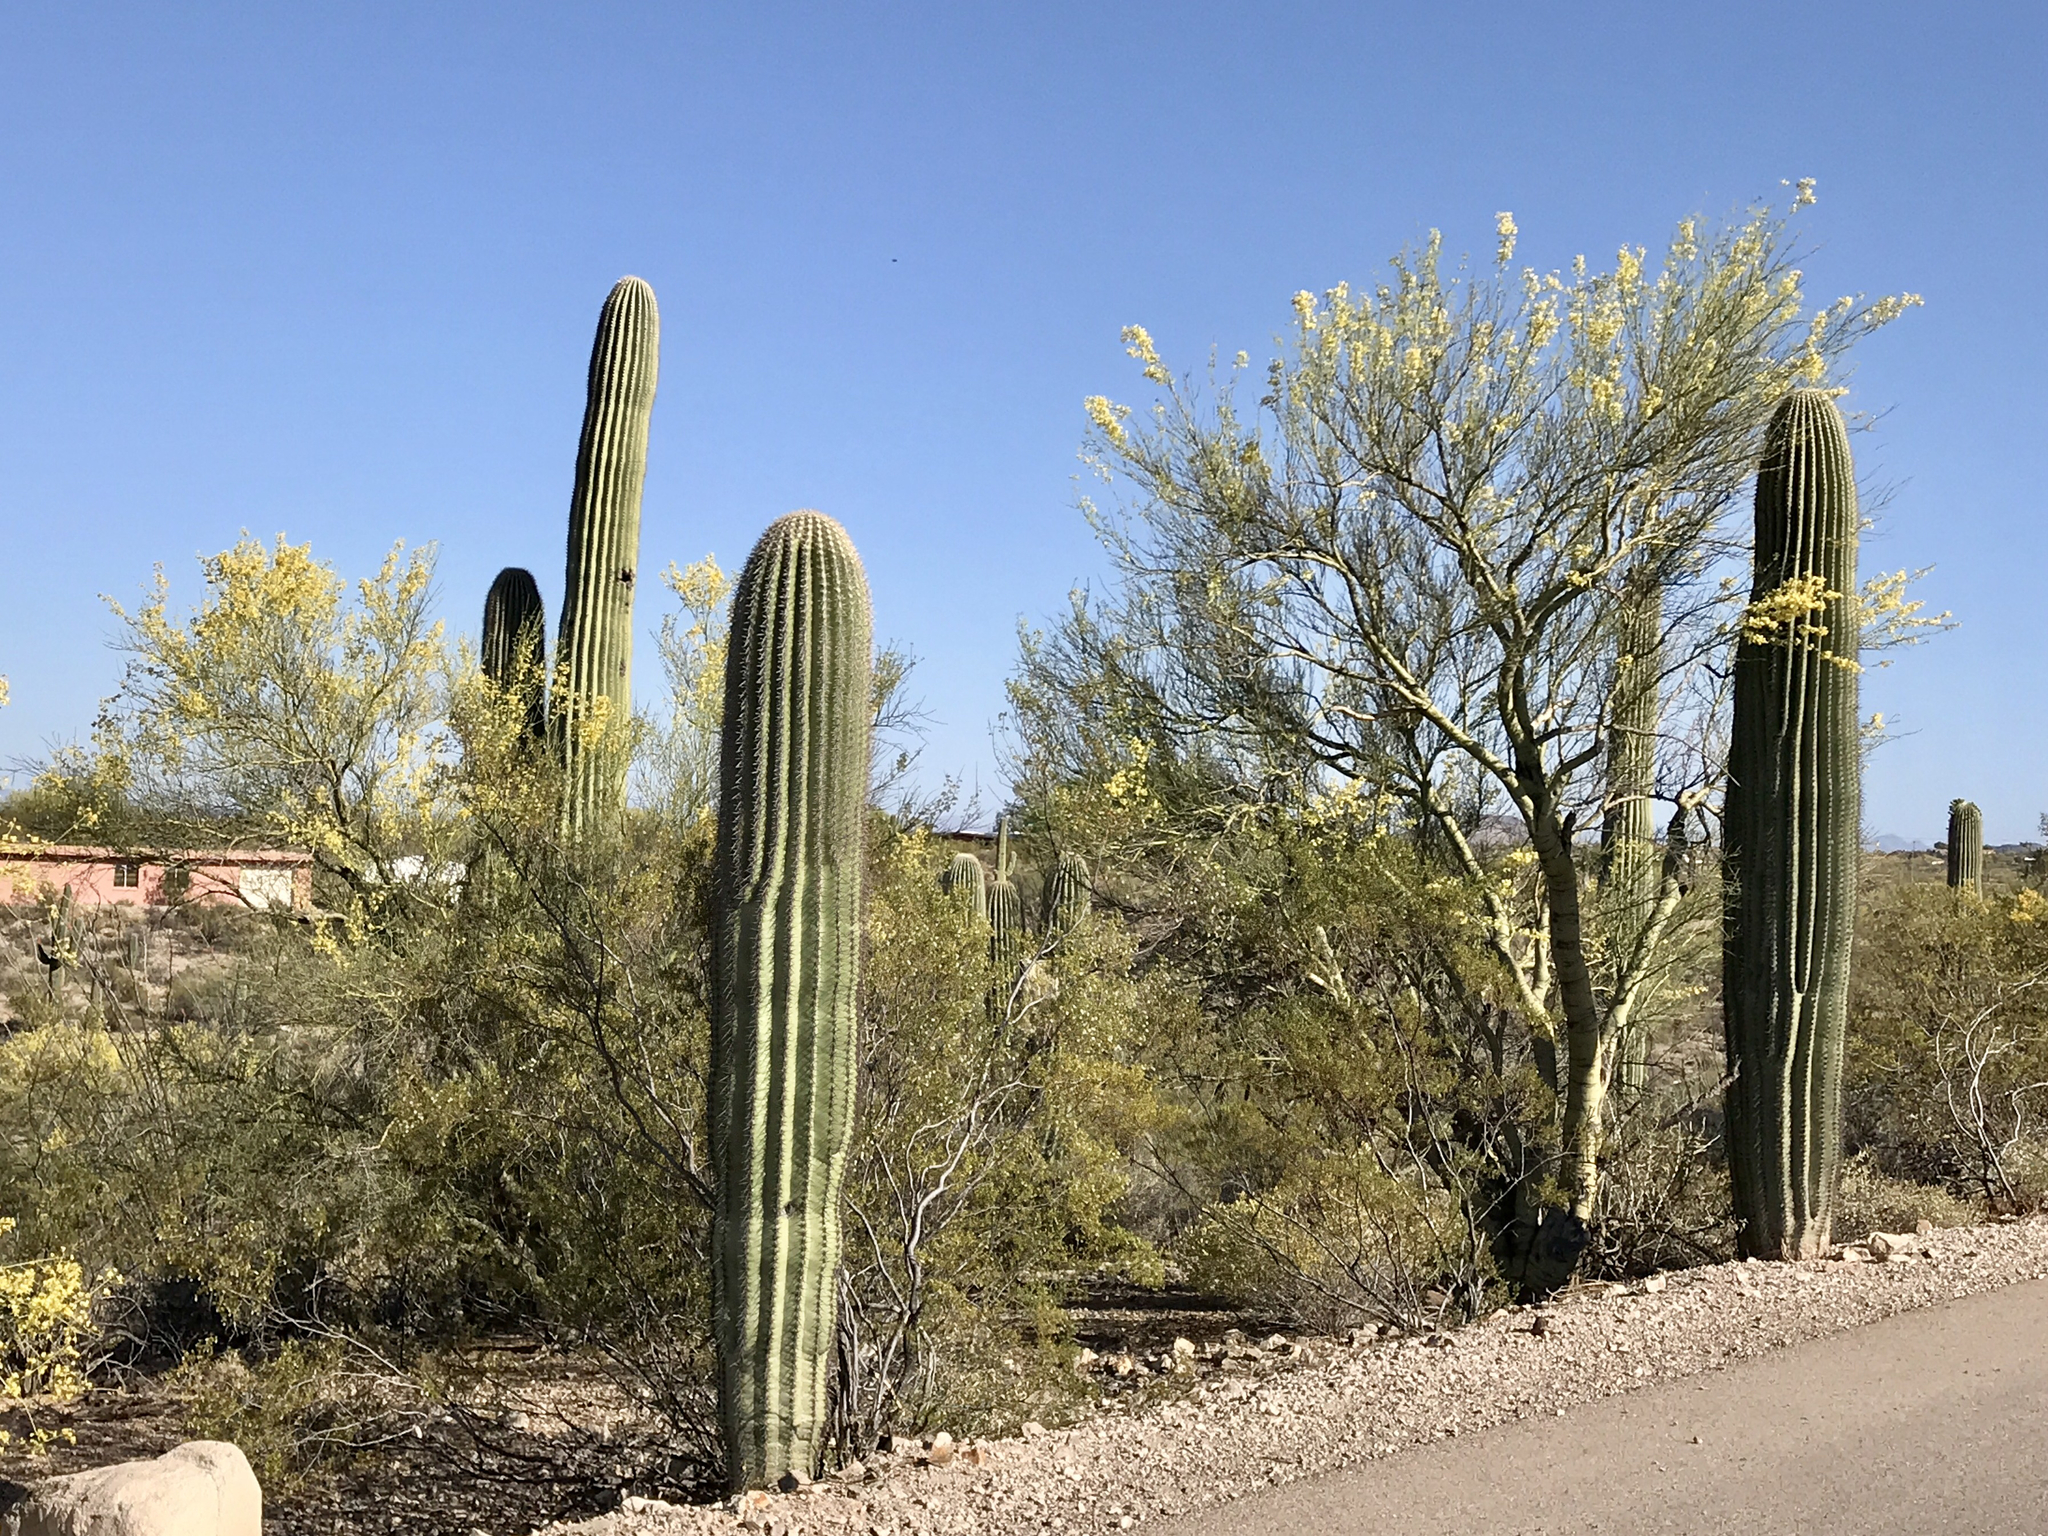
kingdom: Plantae
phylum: Tracheophyta
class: Magnoliopsida
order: Caryophyllales
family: Cactaceae
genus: Carnegiea
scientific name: Carnegiea gigantea
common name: Saguaro
